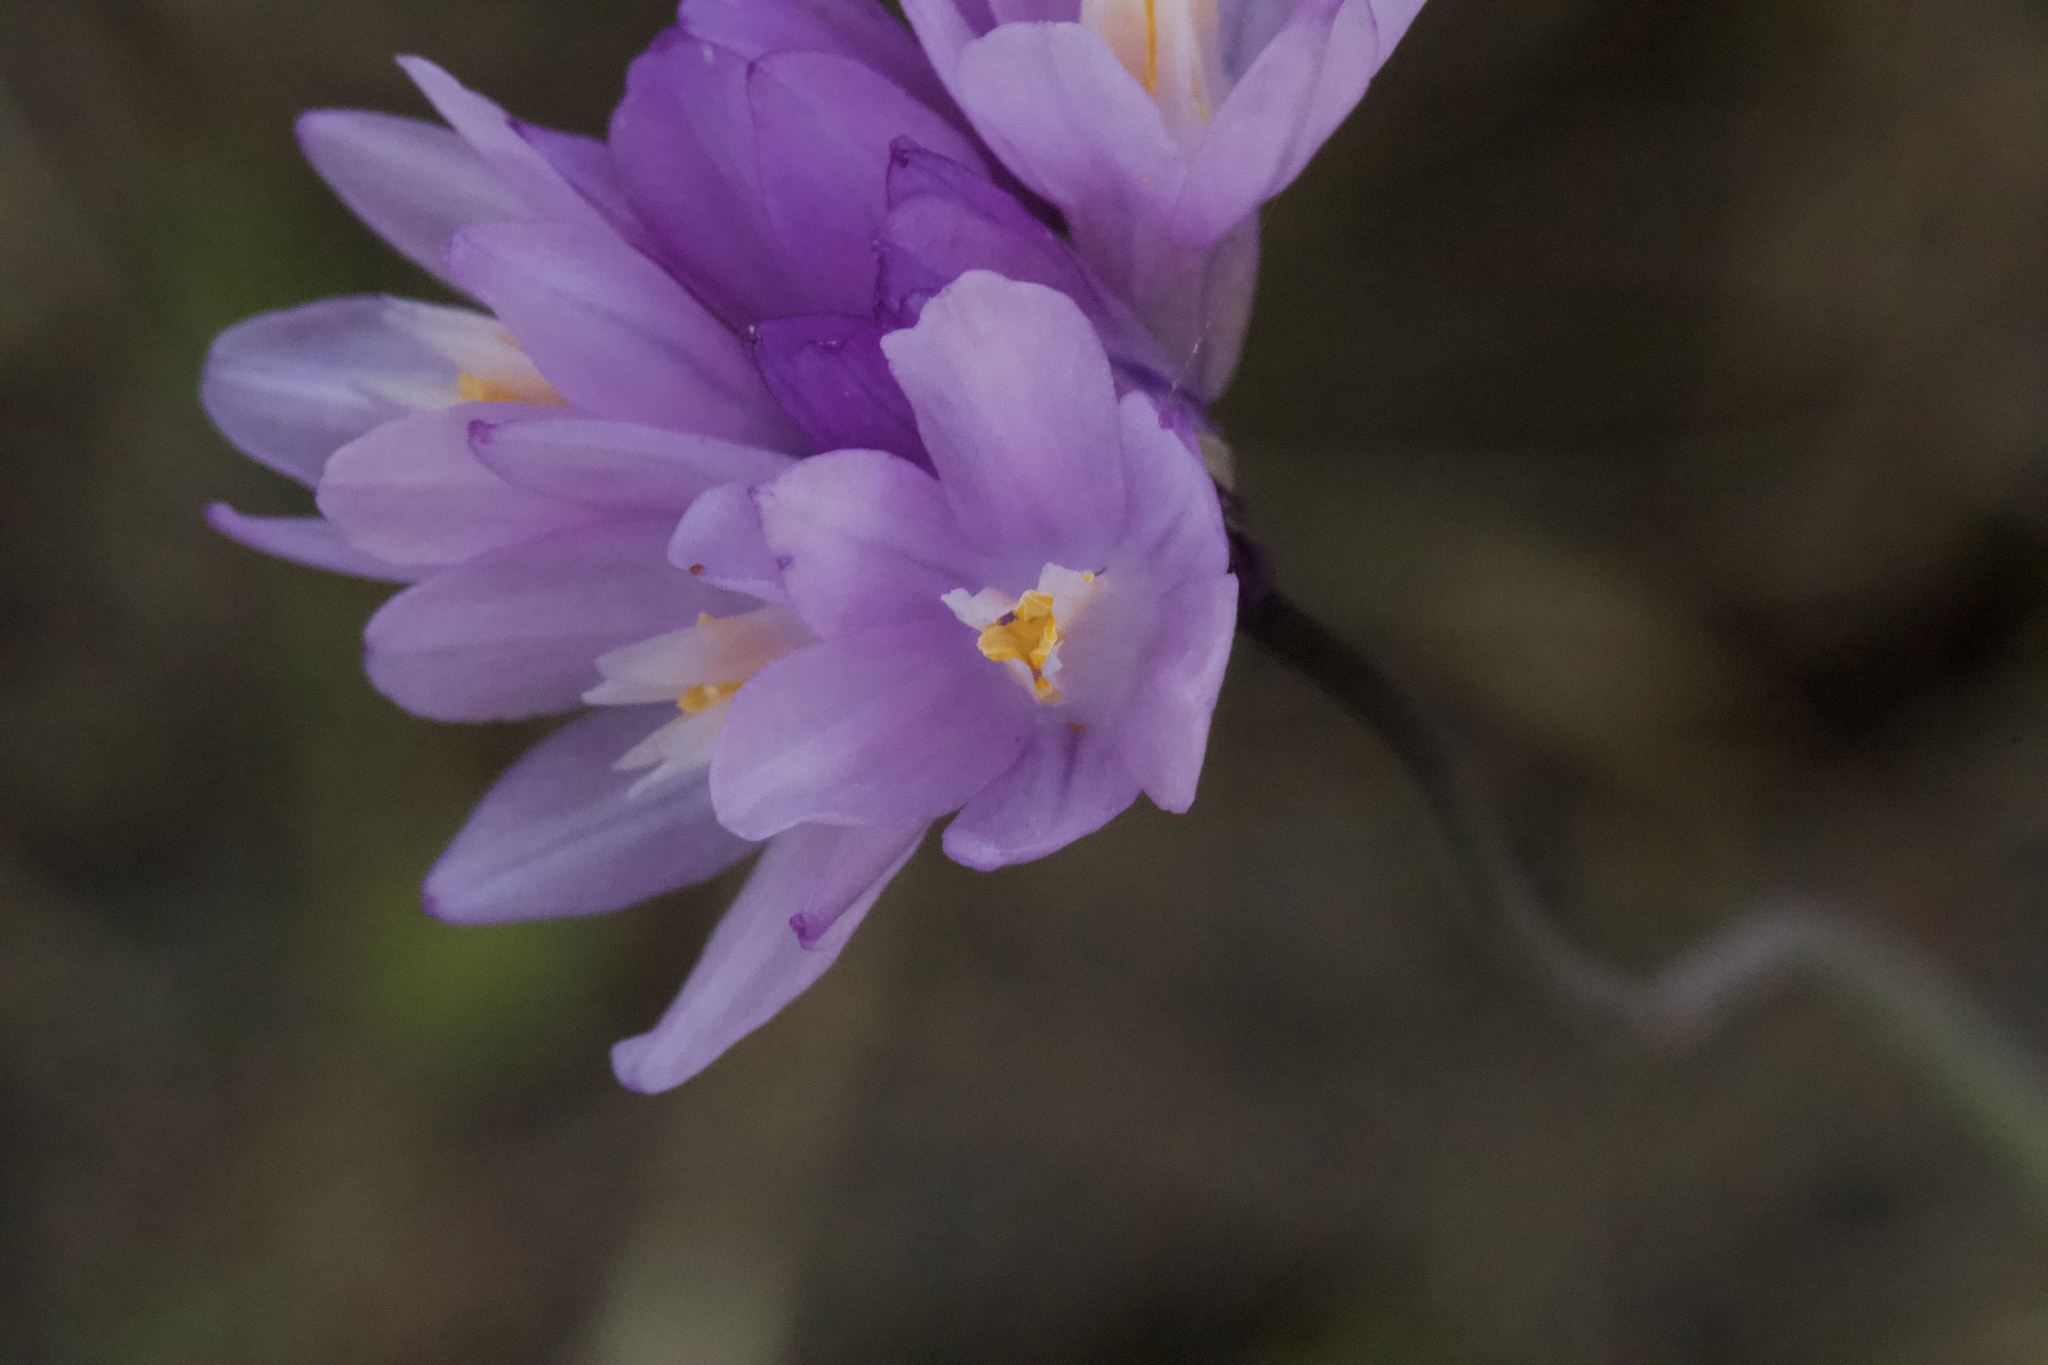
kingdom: Plantae
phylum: Tracheophyta
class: Liliopsida
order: Asparagales
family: Asparagaceae
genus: Dipterostemon
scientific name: Dipterostemon capitatus
